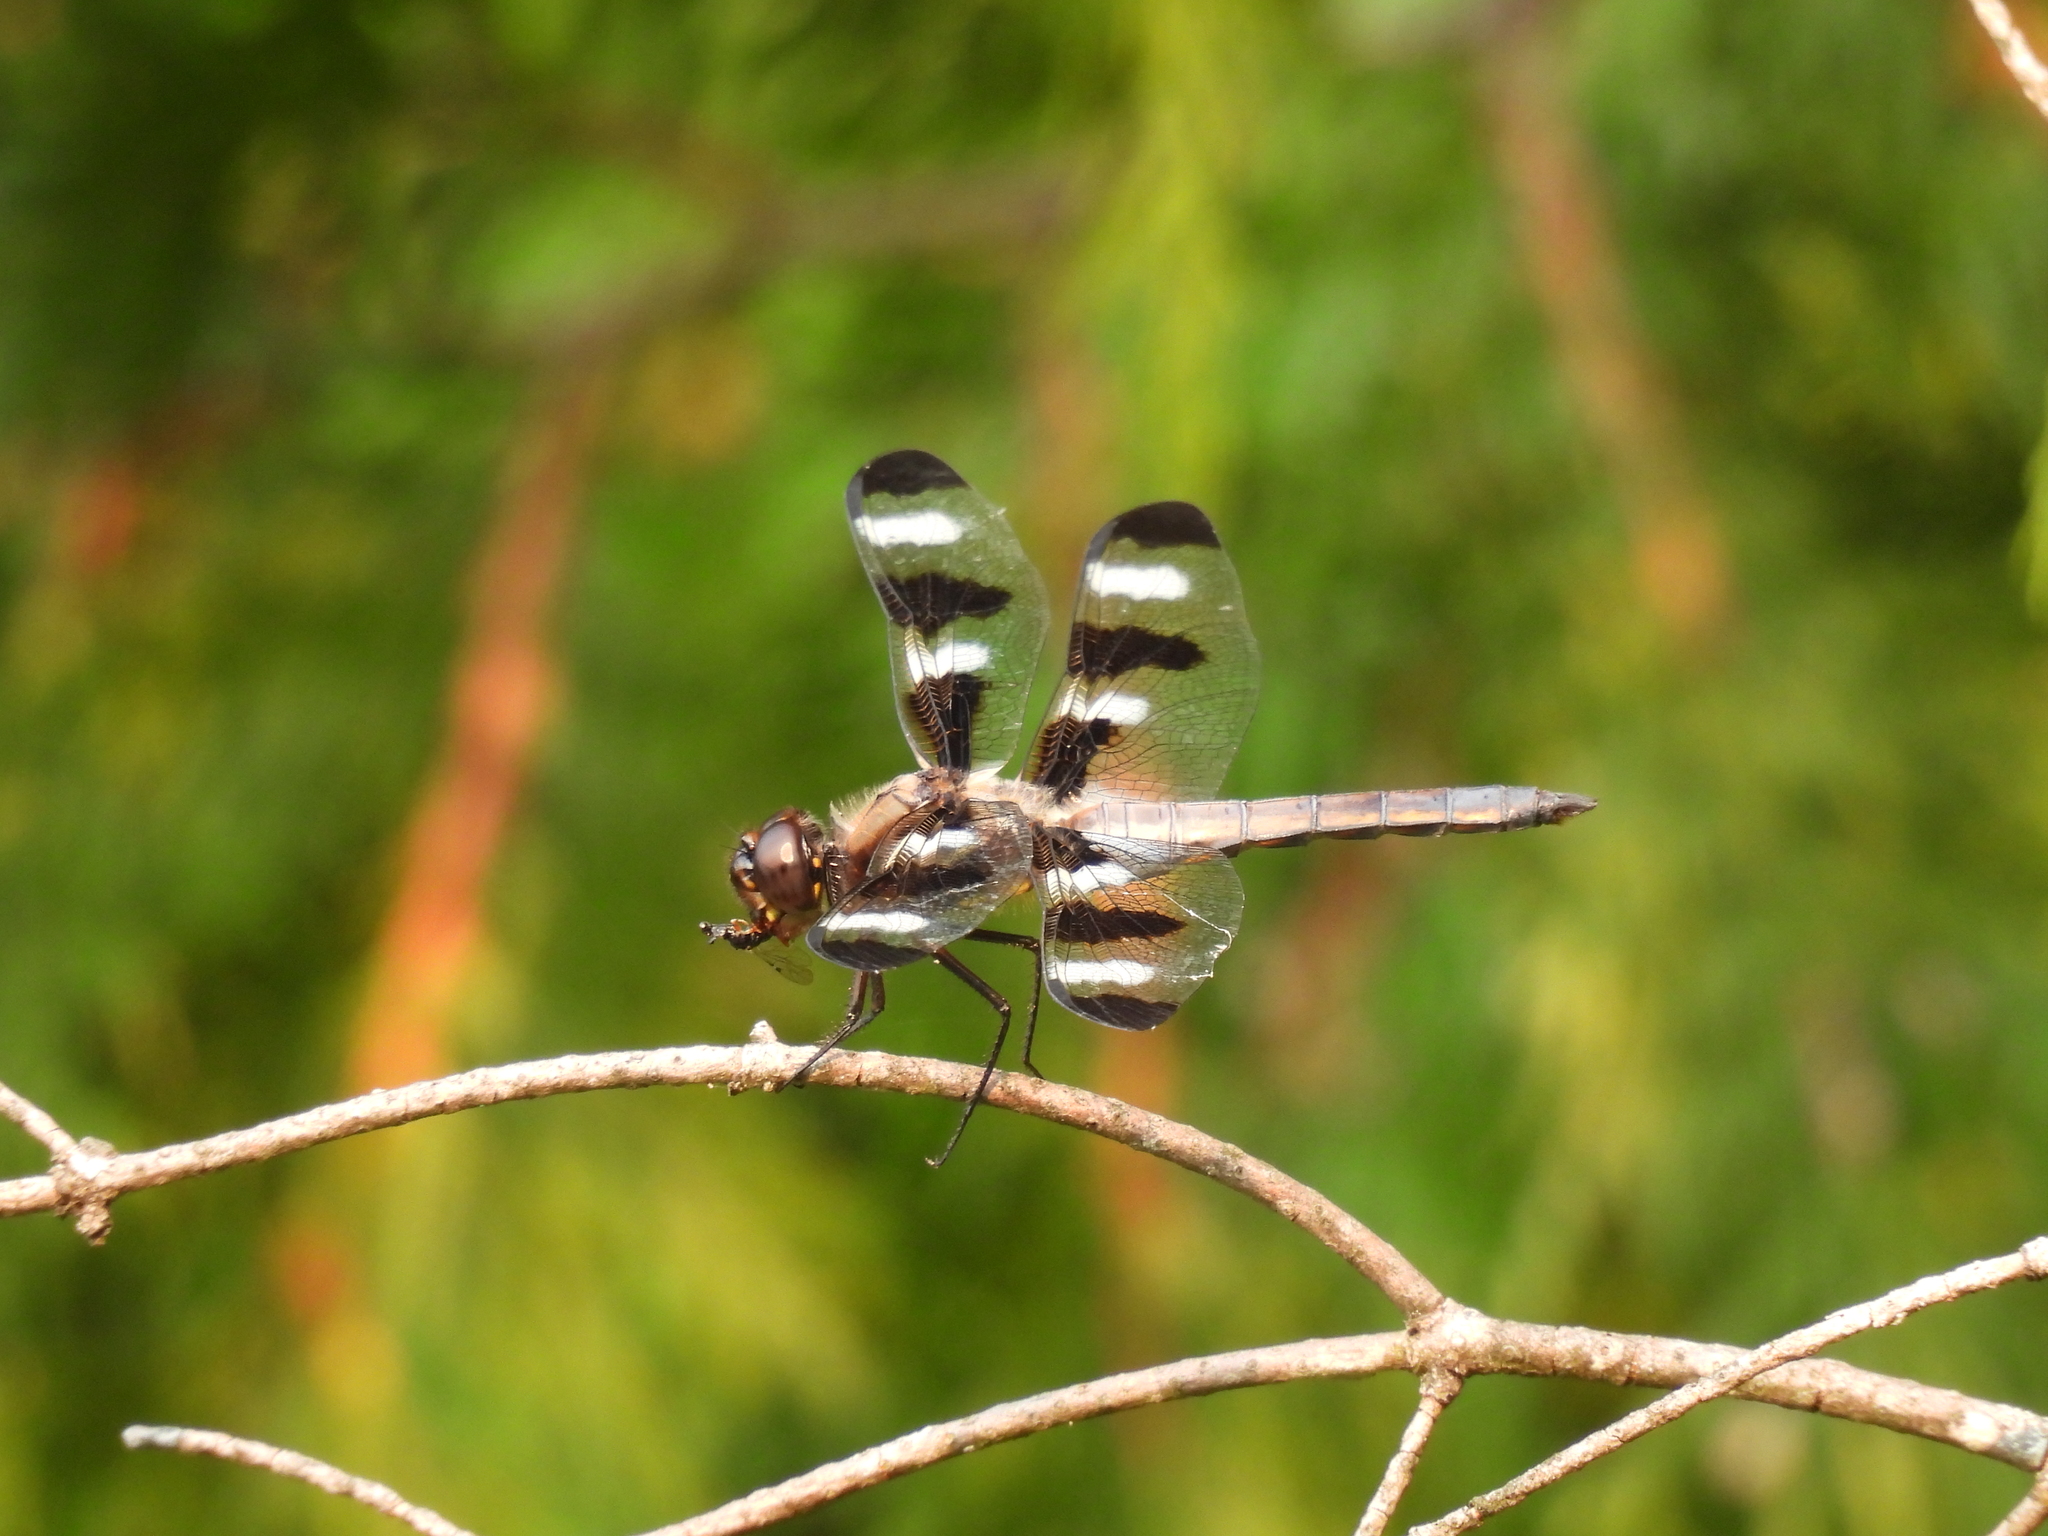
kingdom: Animalia
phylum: Arthropoda
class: Insecta
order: Odonata
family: Libellulidae
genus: Libellula
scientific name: Libellula pulchella
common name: Twelve-spotted skimmer
